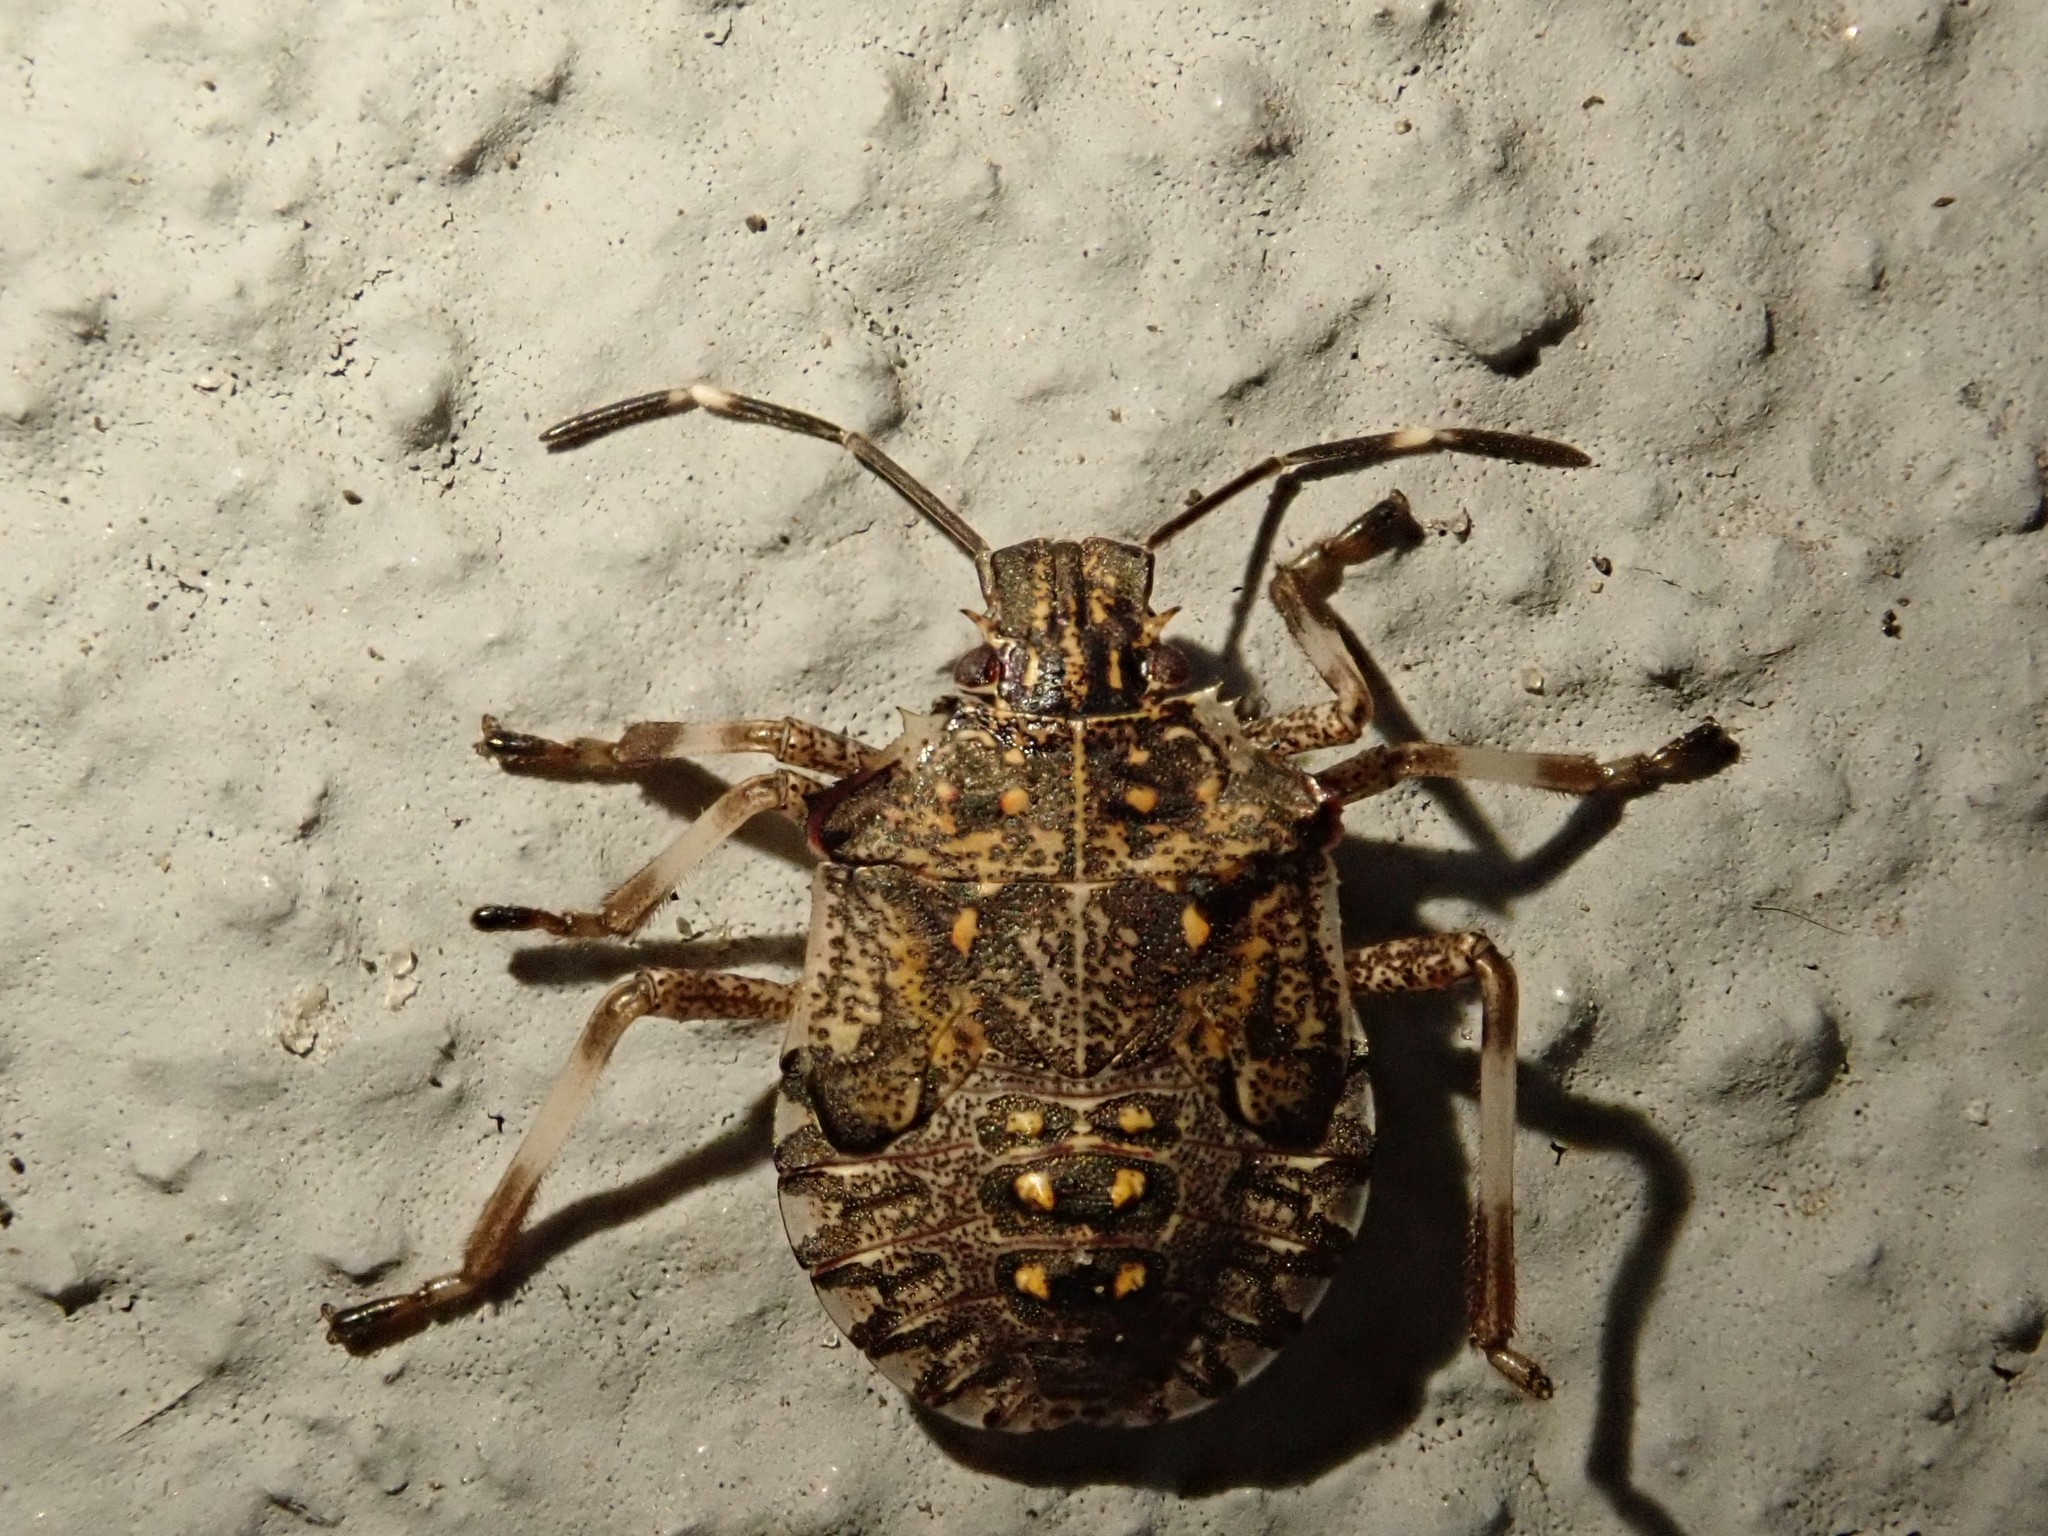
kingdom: Animalia
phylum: Arthropoda
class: Insecta
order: Hemiptera
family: Pentatomidae
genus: Halyomorpha
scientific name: Halyomorpha halys
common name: Brown marmorated stink bug
